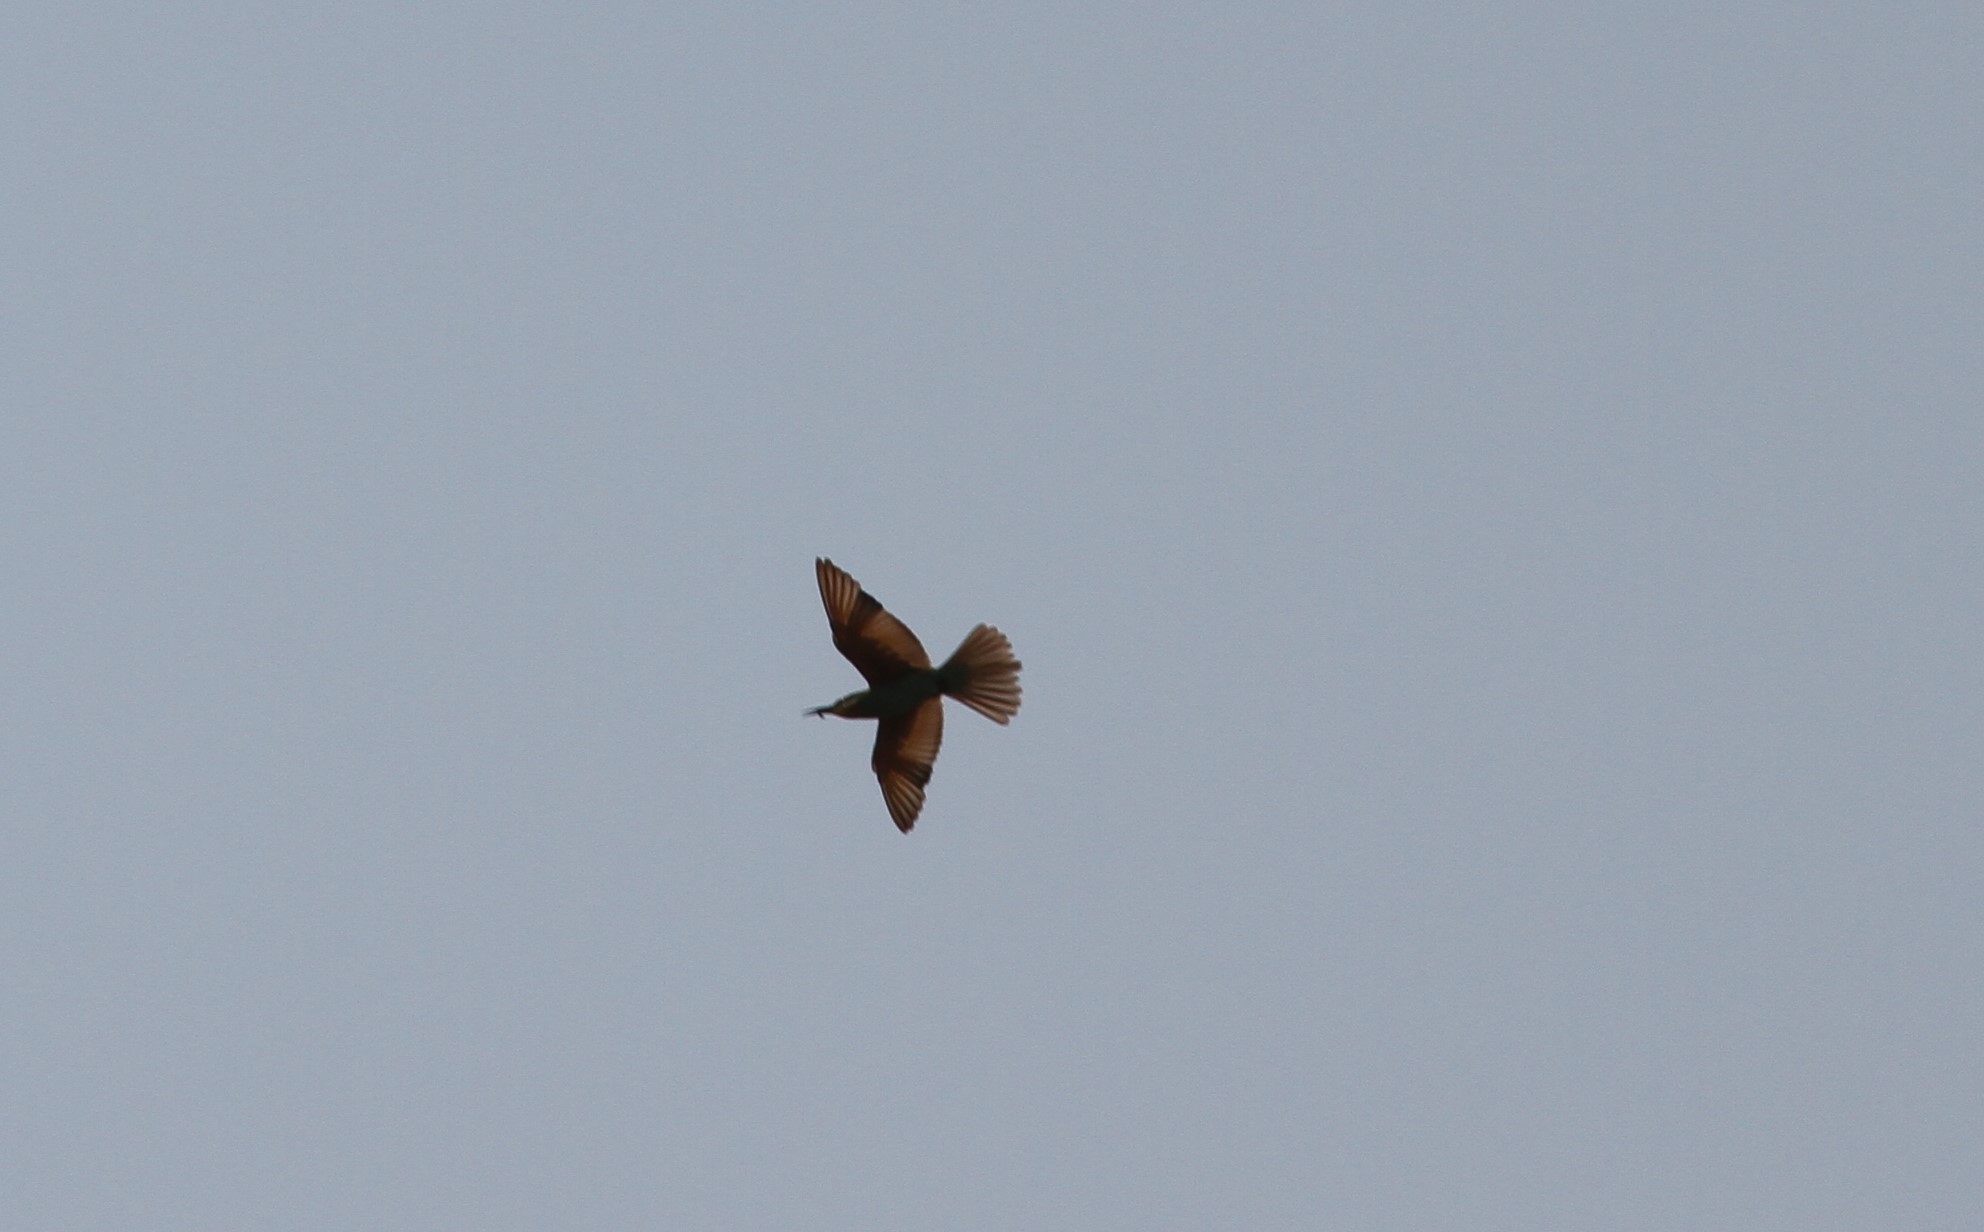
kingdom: Animalia
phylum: Chordata
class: Aves
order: Coraciiformes
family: Meropidae
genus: Merops
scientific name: Merops persicus
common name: Blue-cheeked bee-eater
